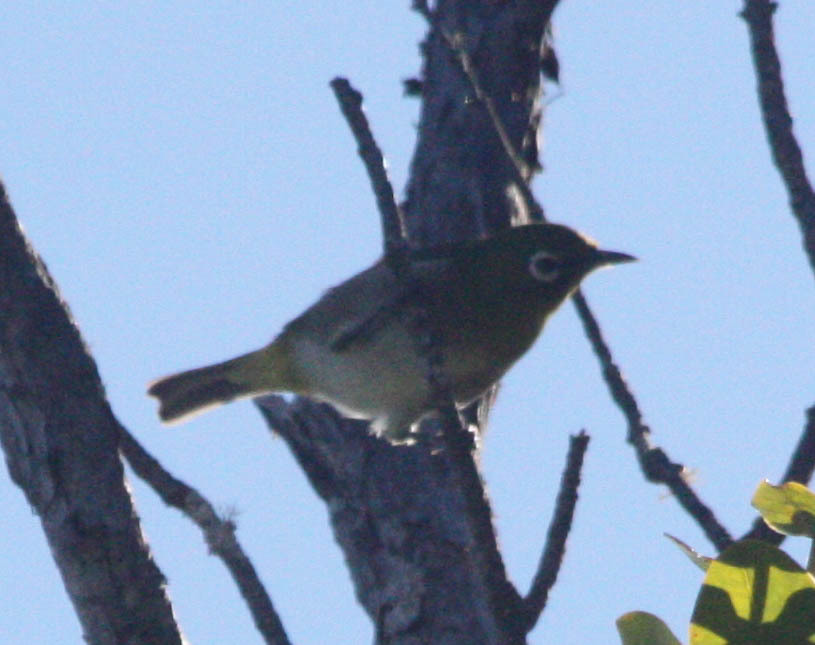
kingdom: Animalia
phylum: Chordata
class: Aves
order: Passeriformes
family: Zosteropidae
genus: Zosterops
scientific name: Zosterops japonicus
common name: Japanese white-eye
